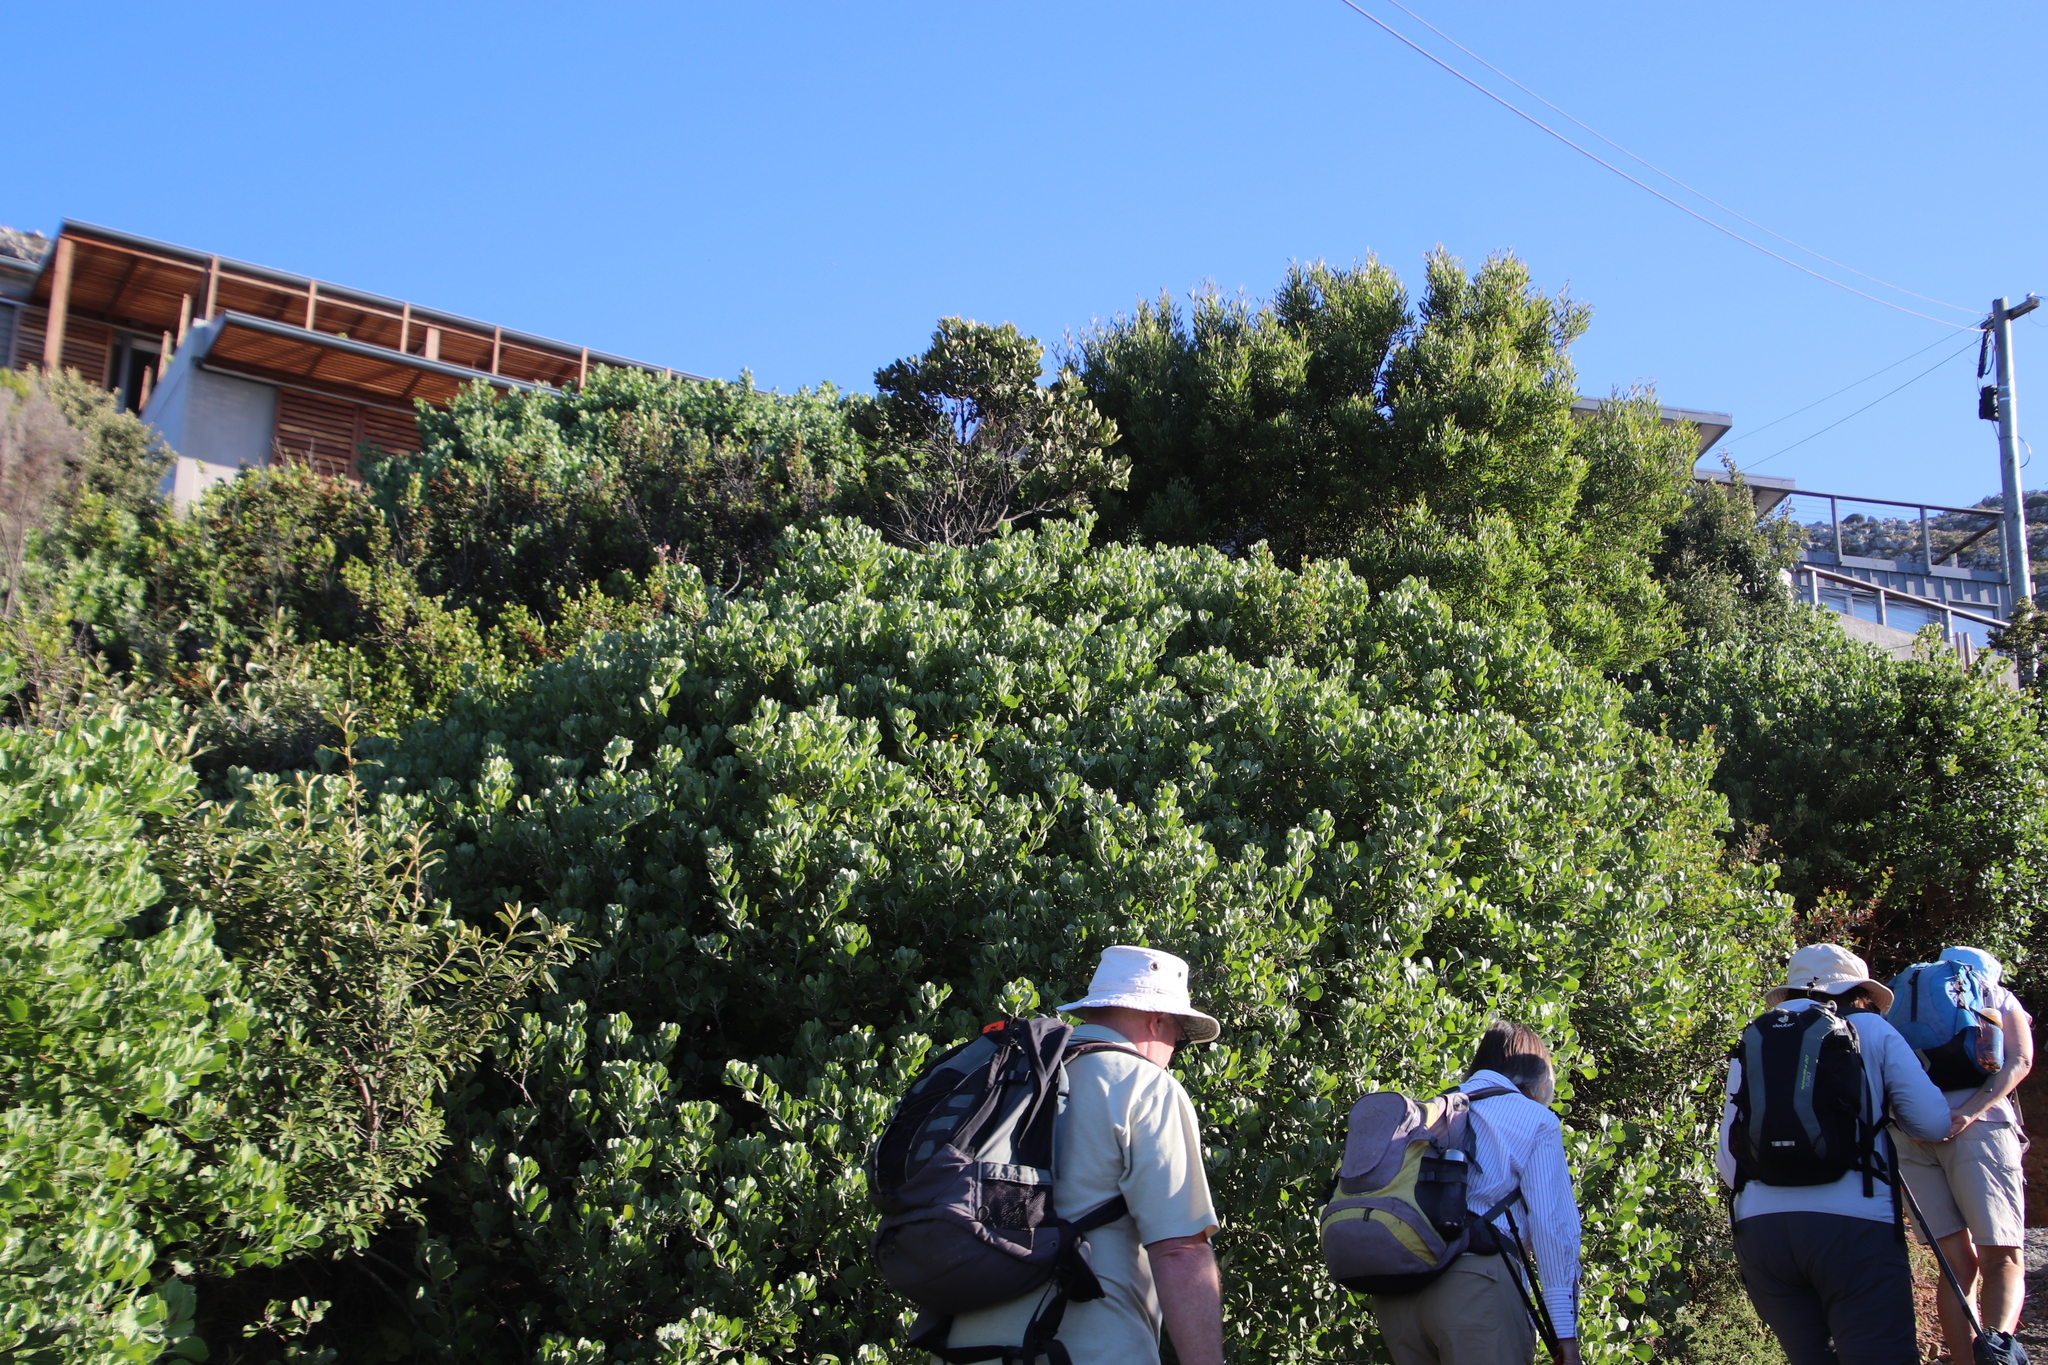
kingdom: Plantae
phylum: Tracheophyta
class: Magnoliopsida
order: Asterales
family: Asteraceae
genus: Osteospermum
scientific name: Osteospermum moniliferum
